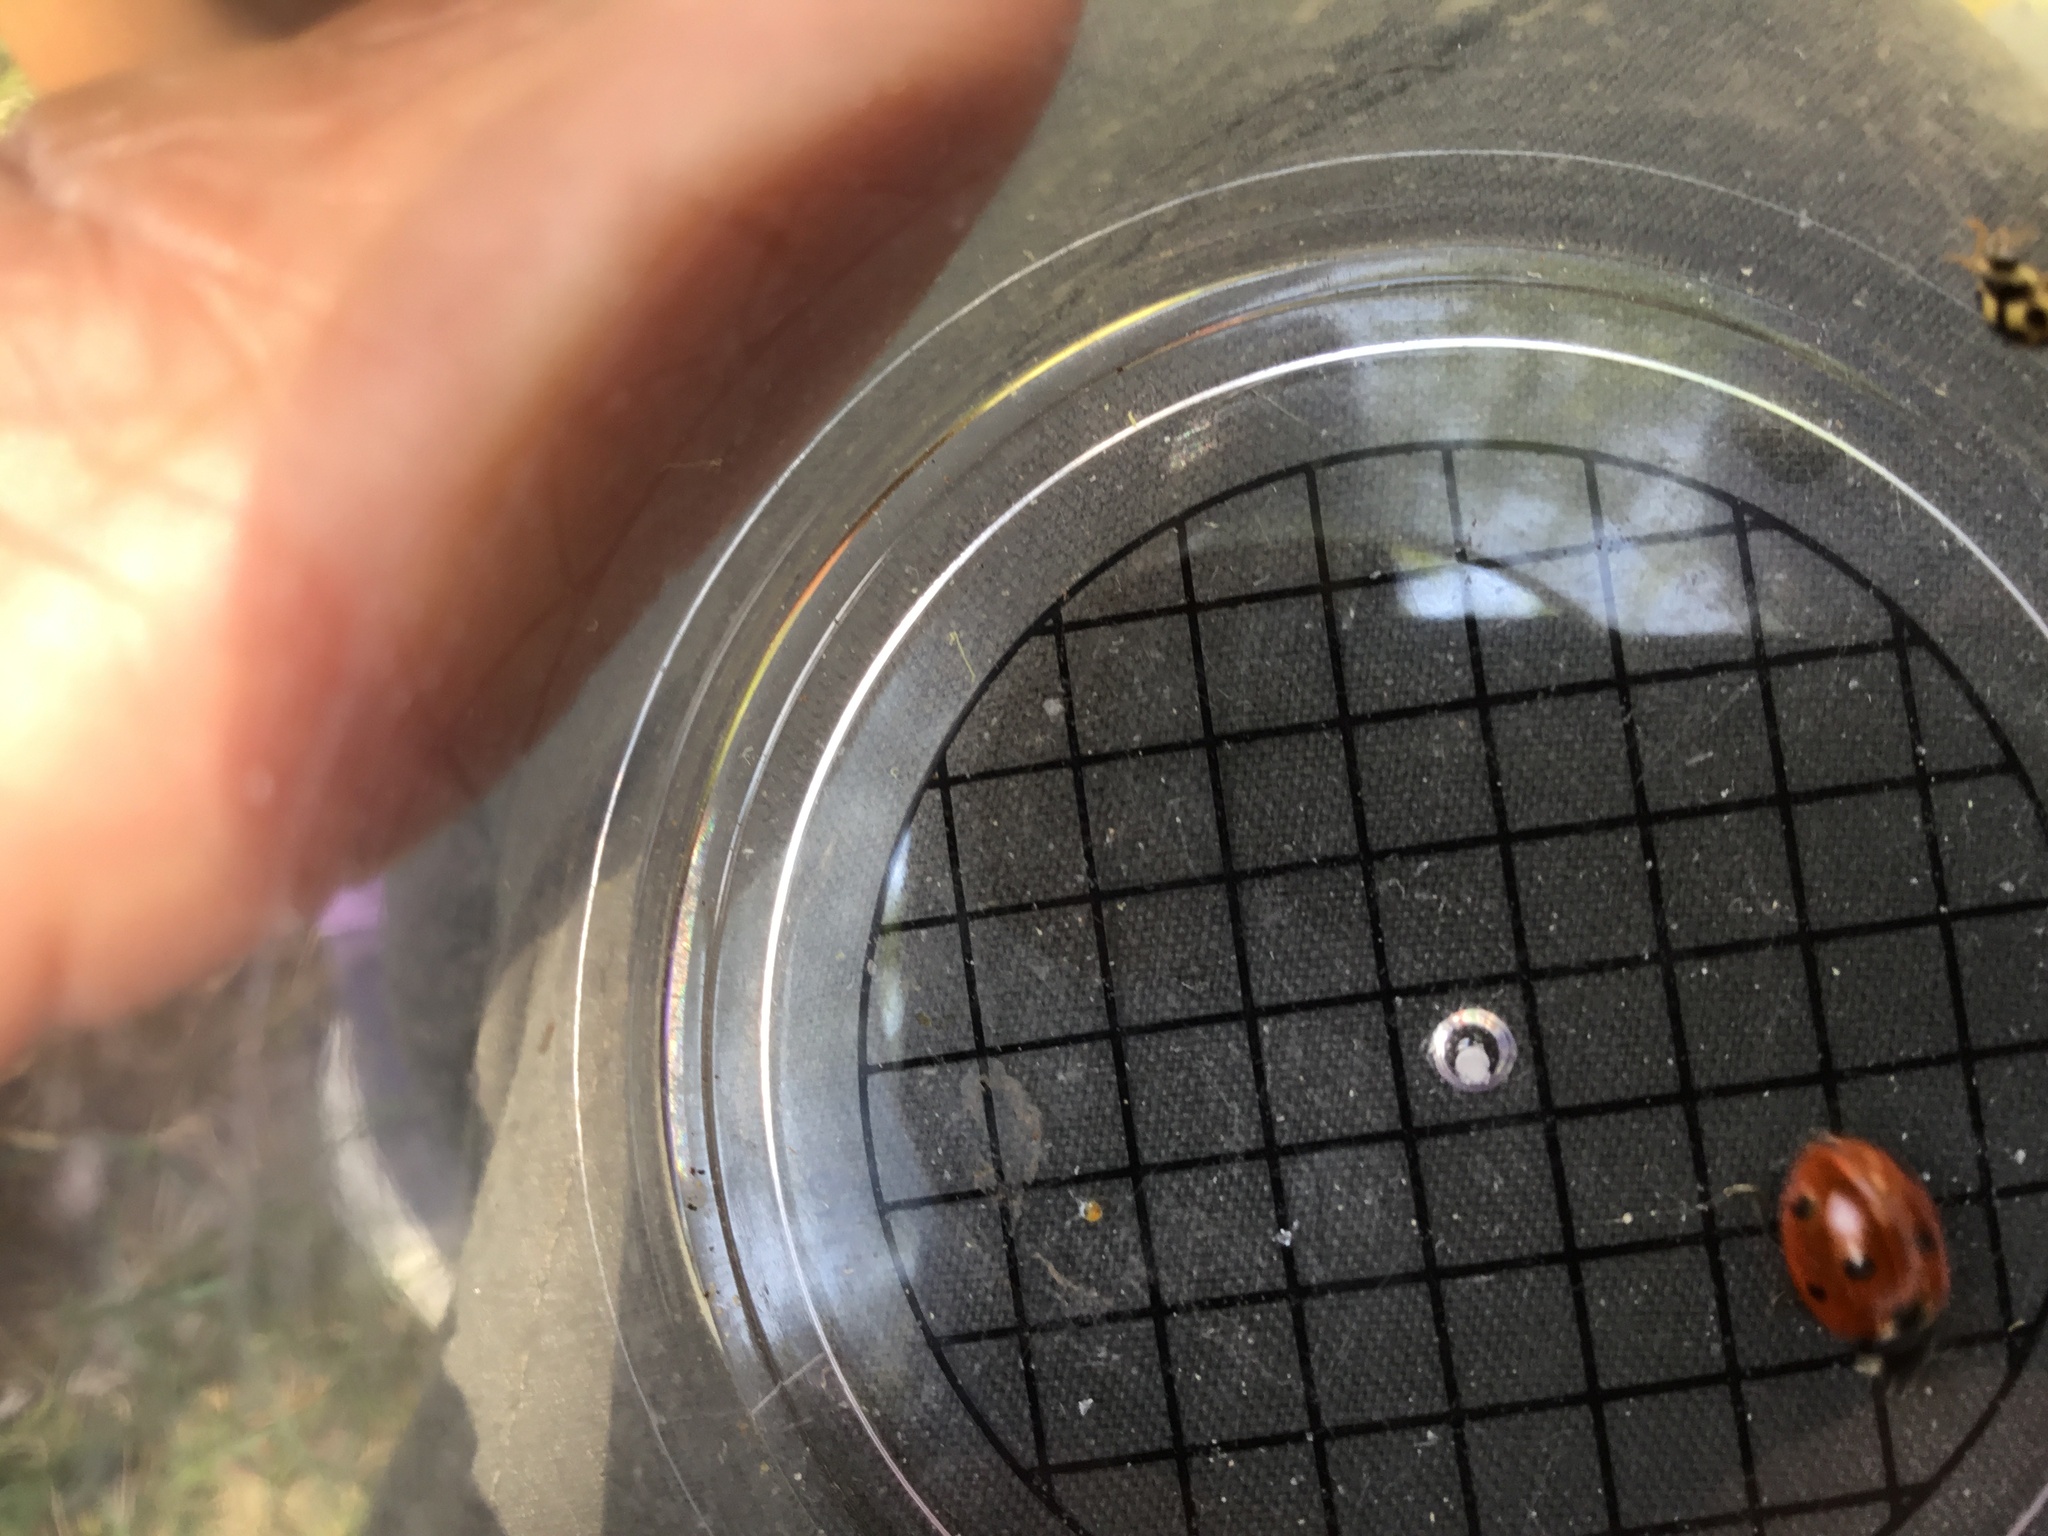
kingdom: Animalia
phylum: Arthropoda
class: Insecta
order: Coleoptera
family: Coccinellidae
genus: Coccinella
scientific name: Coccinella septempunctata
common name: Sevenspotted lady beetle
